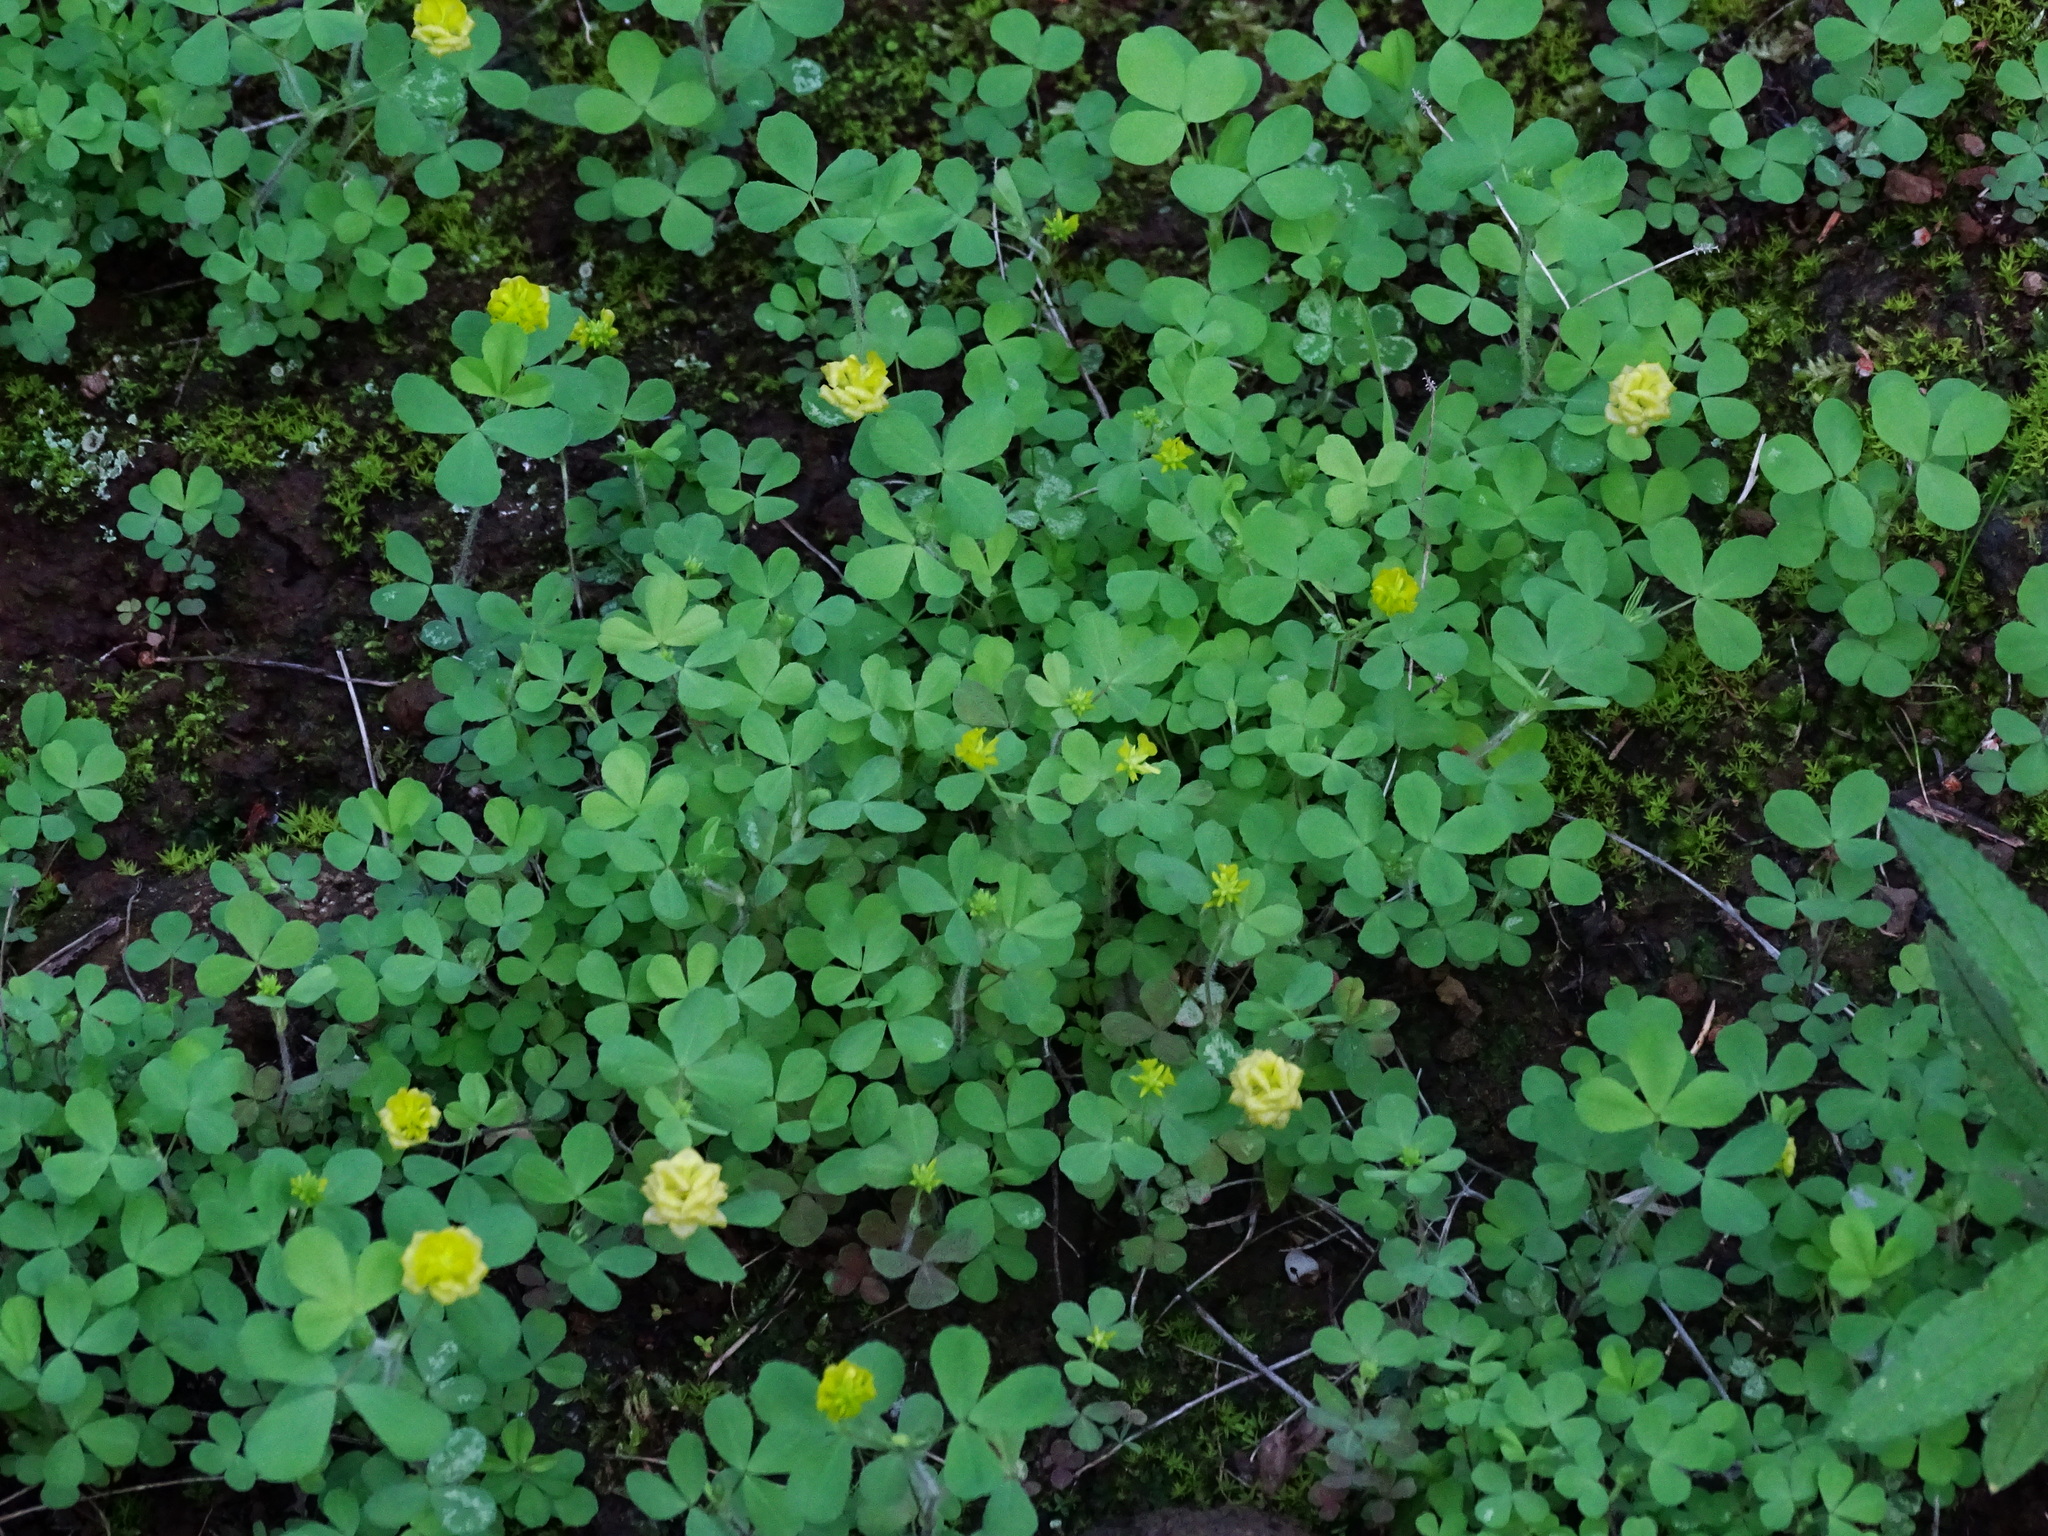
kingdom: Plantae
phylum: Tracheophyta
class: Magnoliopsida
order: Fabales
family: Fabaceae
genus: Trifolium
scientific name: Trifolium campestre
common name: Field clover
